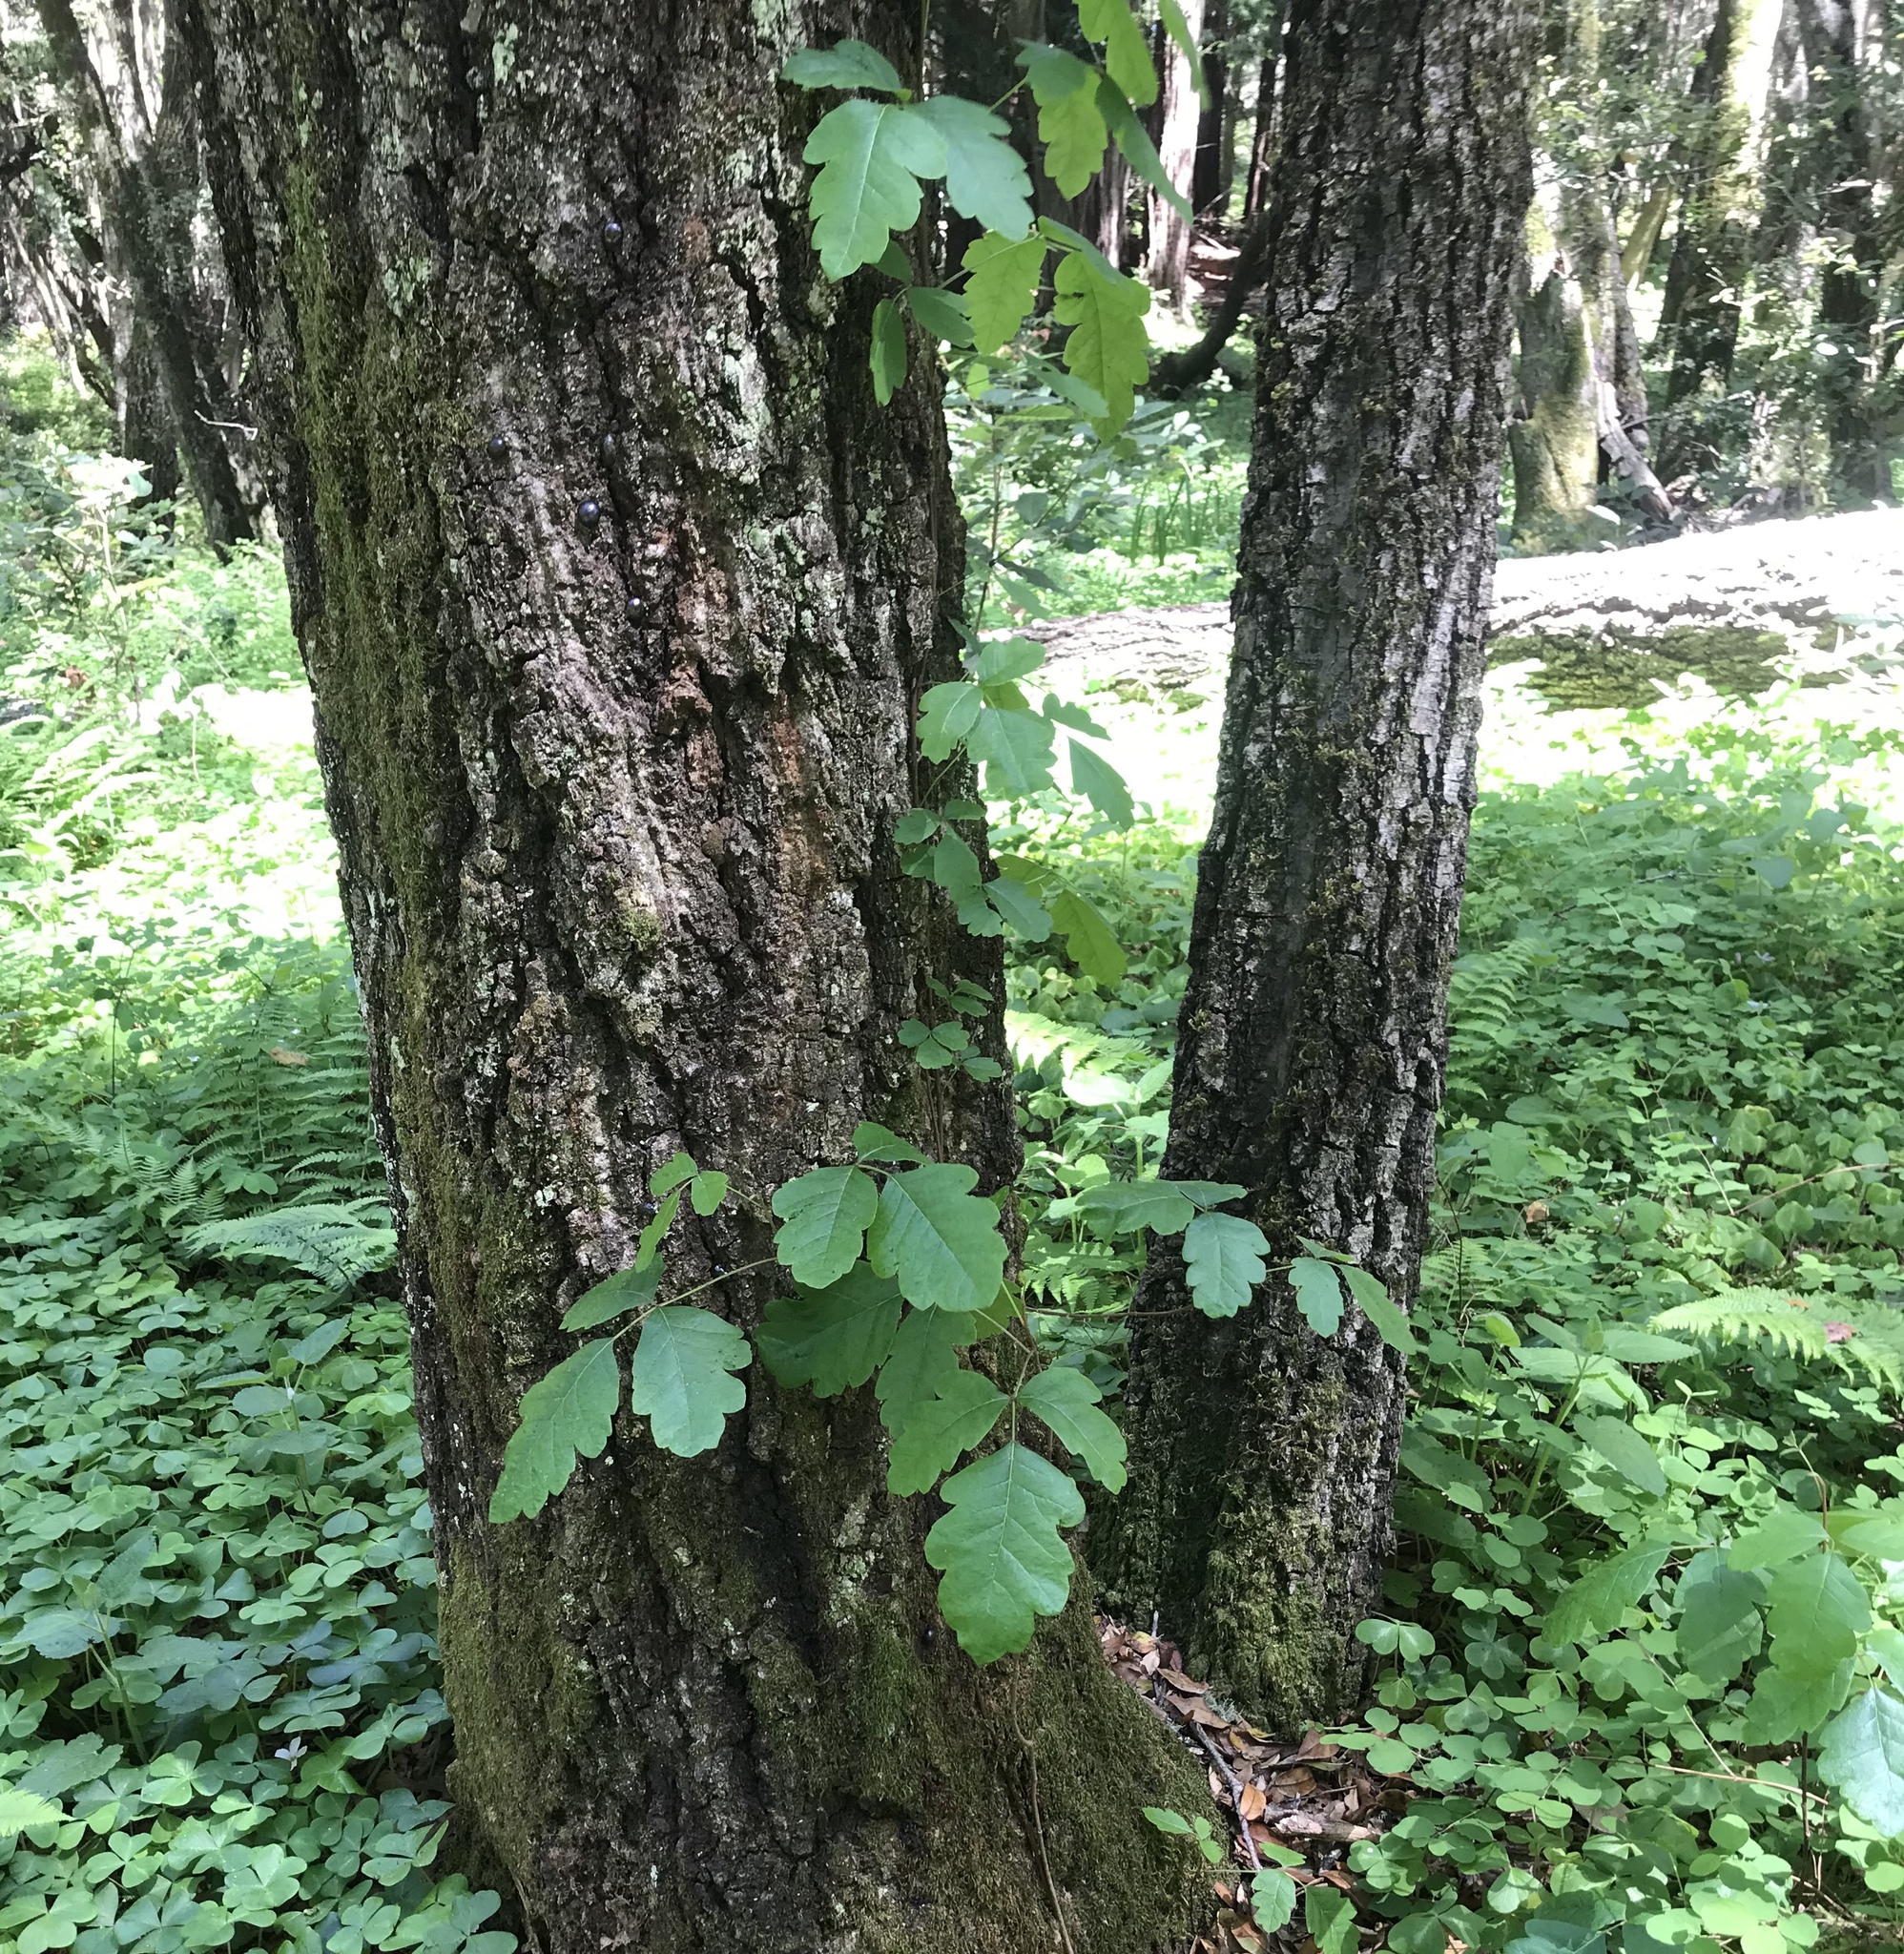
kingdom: Plantae
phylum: Tracheophyta
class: Magnoliopsida
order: Sapindales
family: Anacardiaceae
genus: Toxicodendron
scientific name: Toxicodendron diversilobum
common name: Pacific poison-oak
